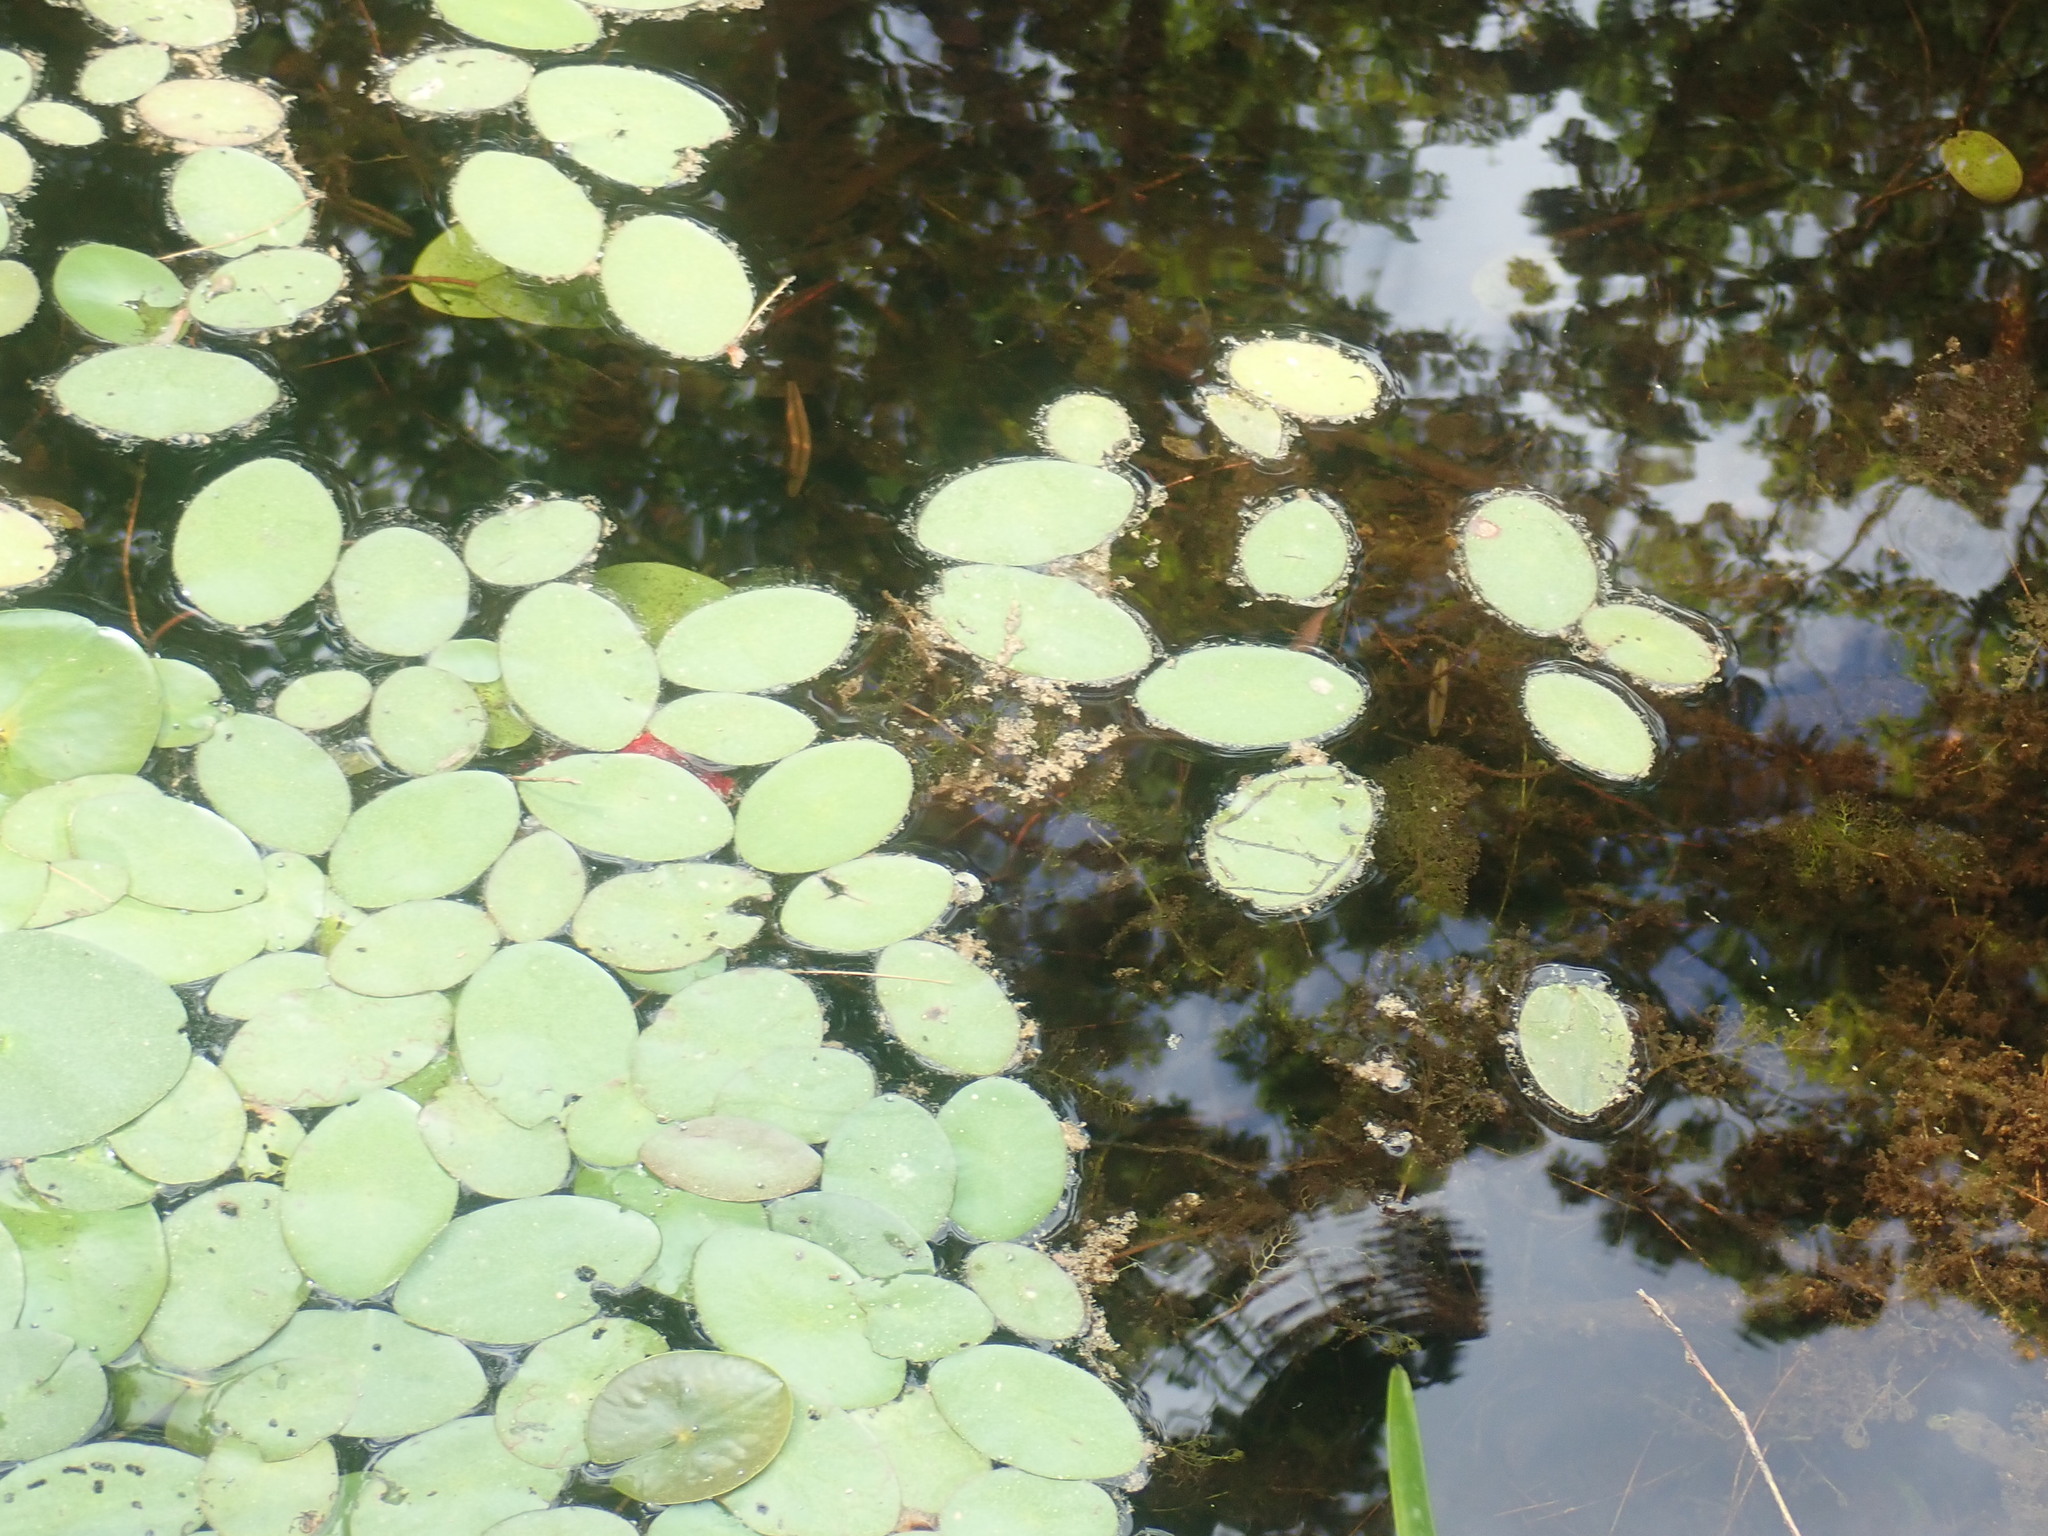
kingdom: Plantae
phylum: Tracheophyta
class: Magnoliopsida
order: Nymphaeales
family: Cabombaceae
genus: Brasenia
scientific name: Brasenia schreberi
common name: Water-shield
